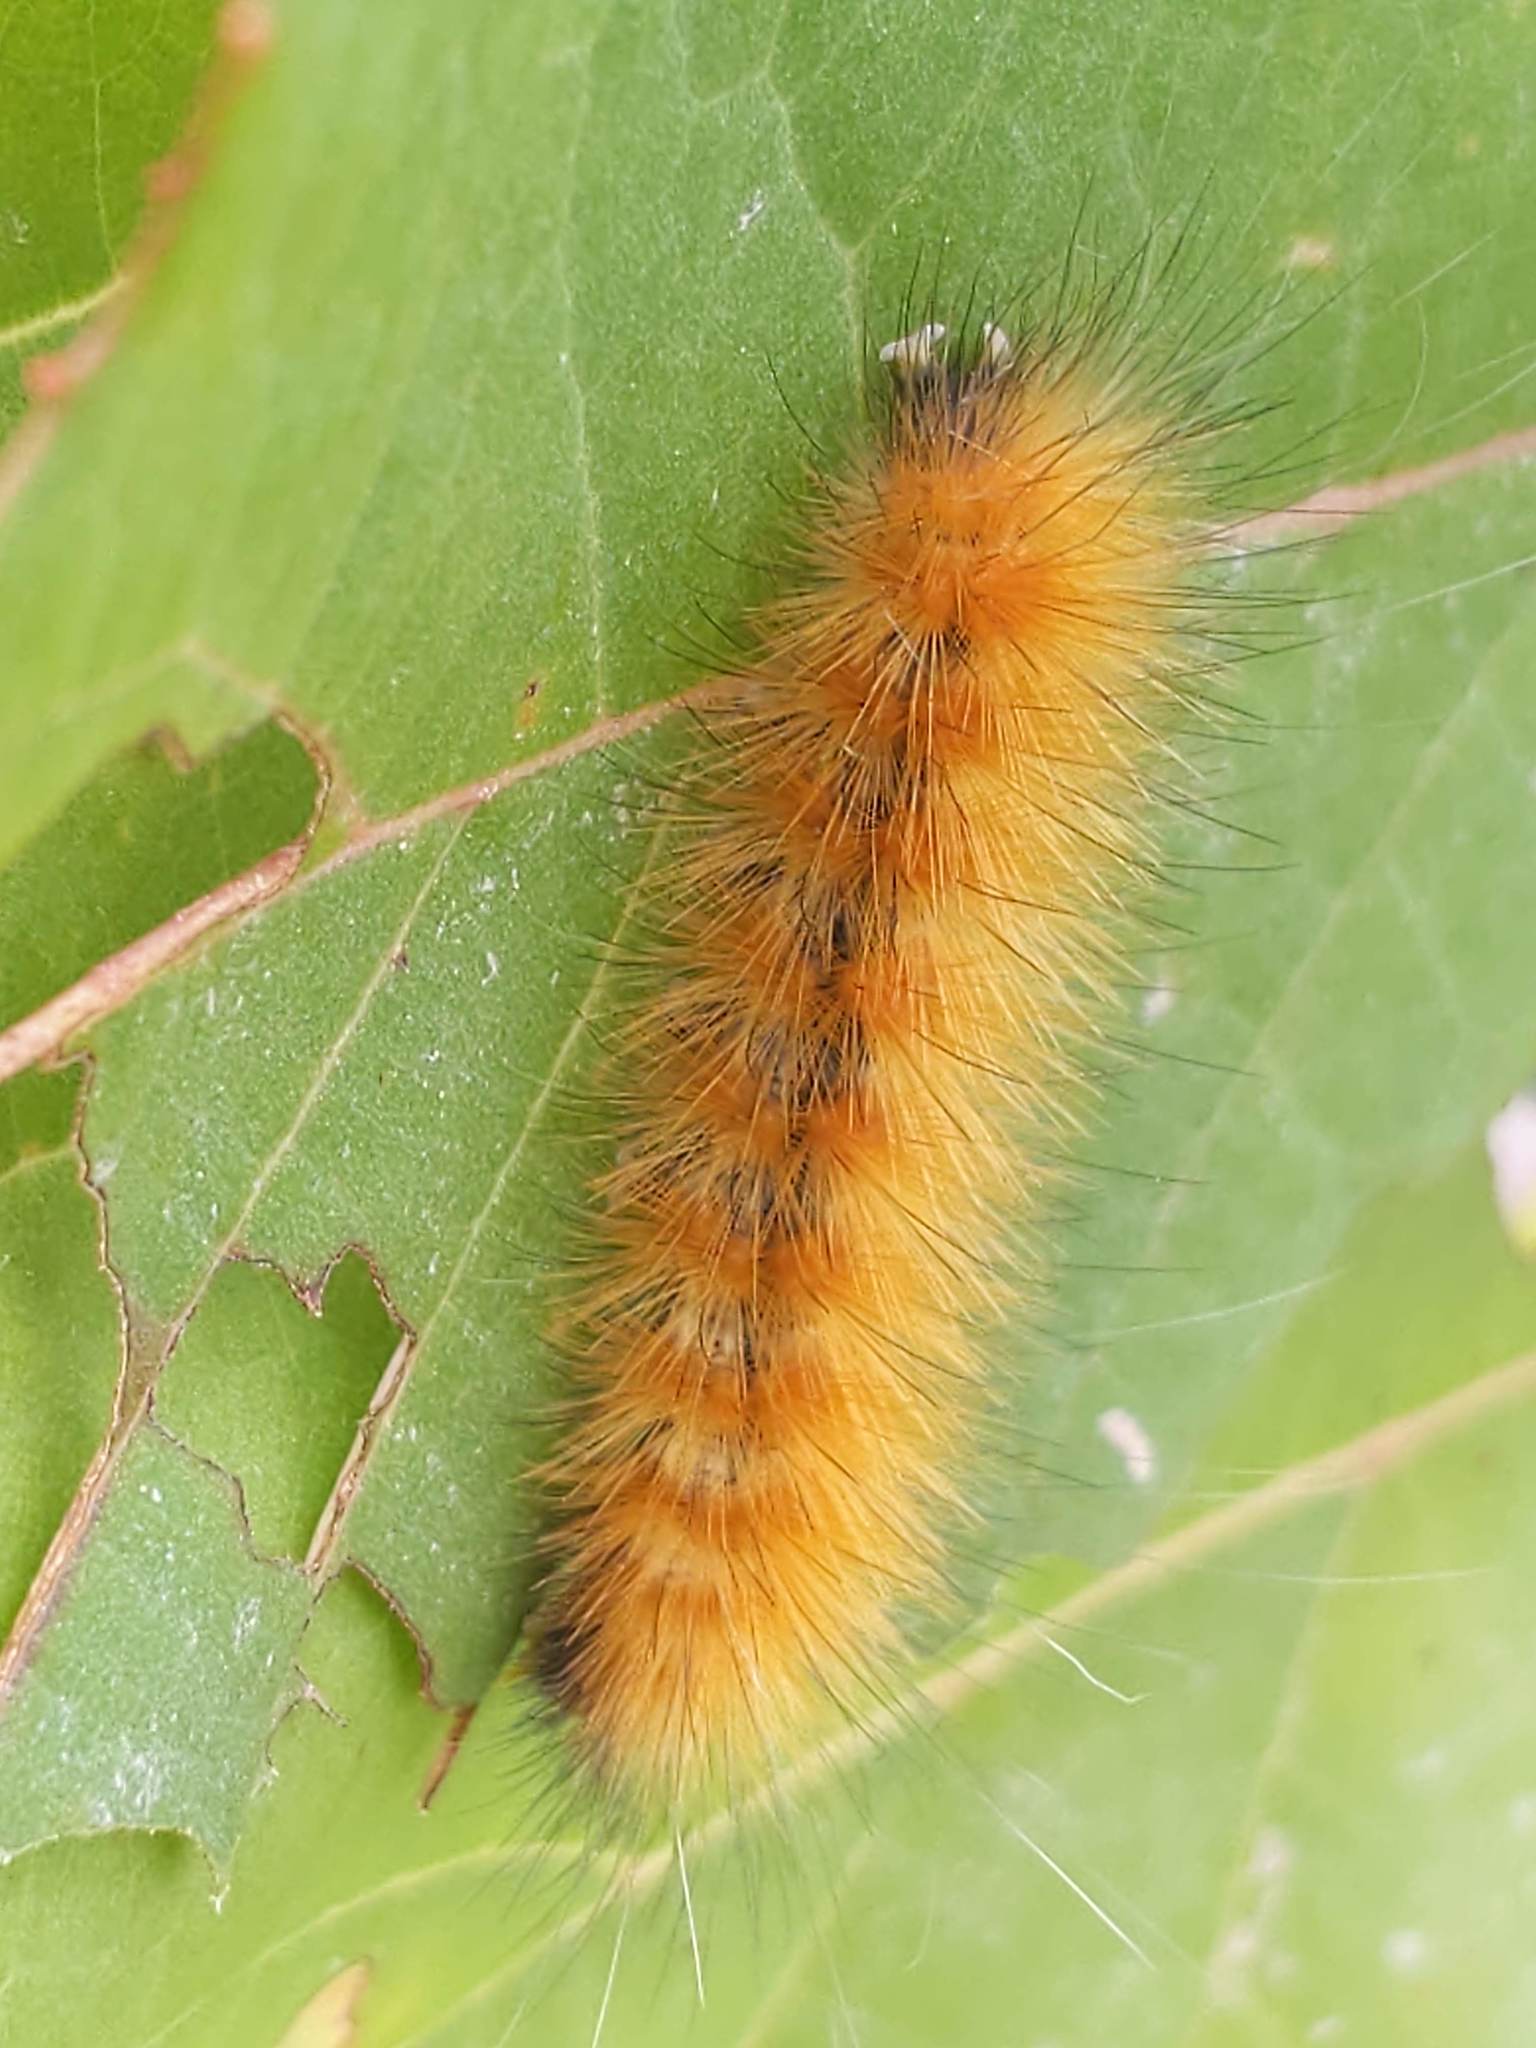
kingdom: Animalia
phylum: Arthropoda
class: Insecta
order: Lepidoptera
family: Erebidae
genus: Spilosoma
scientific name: Spilosoma virginica
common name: Virginia tiger moth
